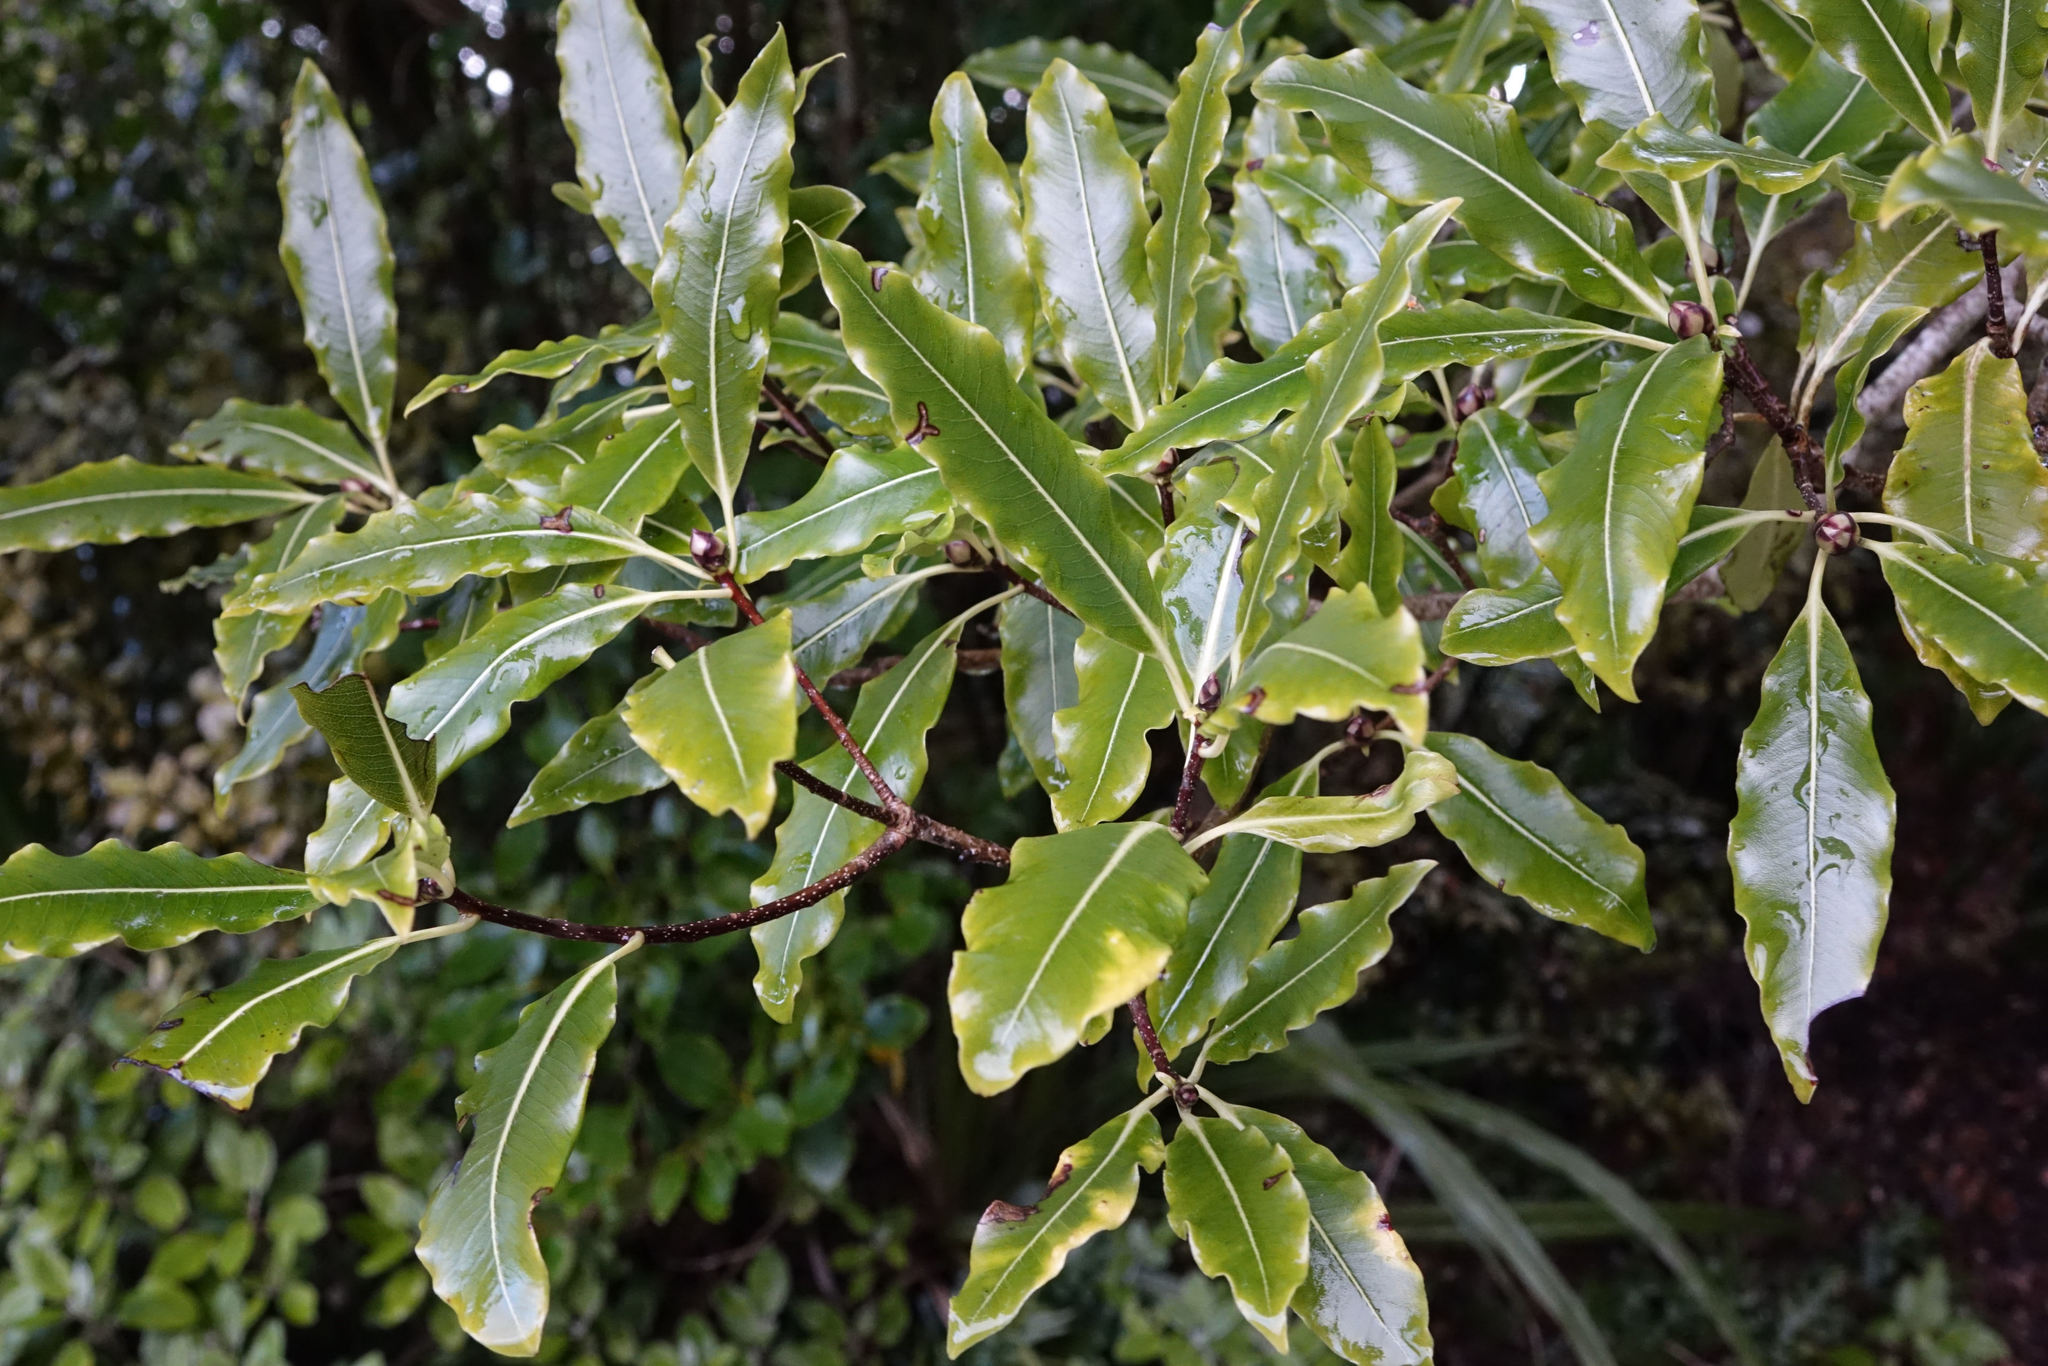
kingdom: Plantae
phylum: Tracheophyta
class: Magnoliopsida
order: Santalales
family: Loranthaceae
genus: Ileostylus
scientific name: Ileostylus micranthus
